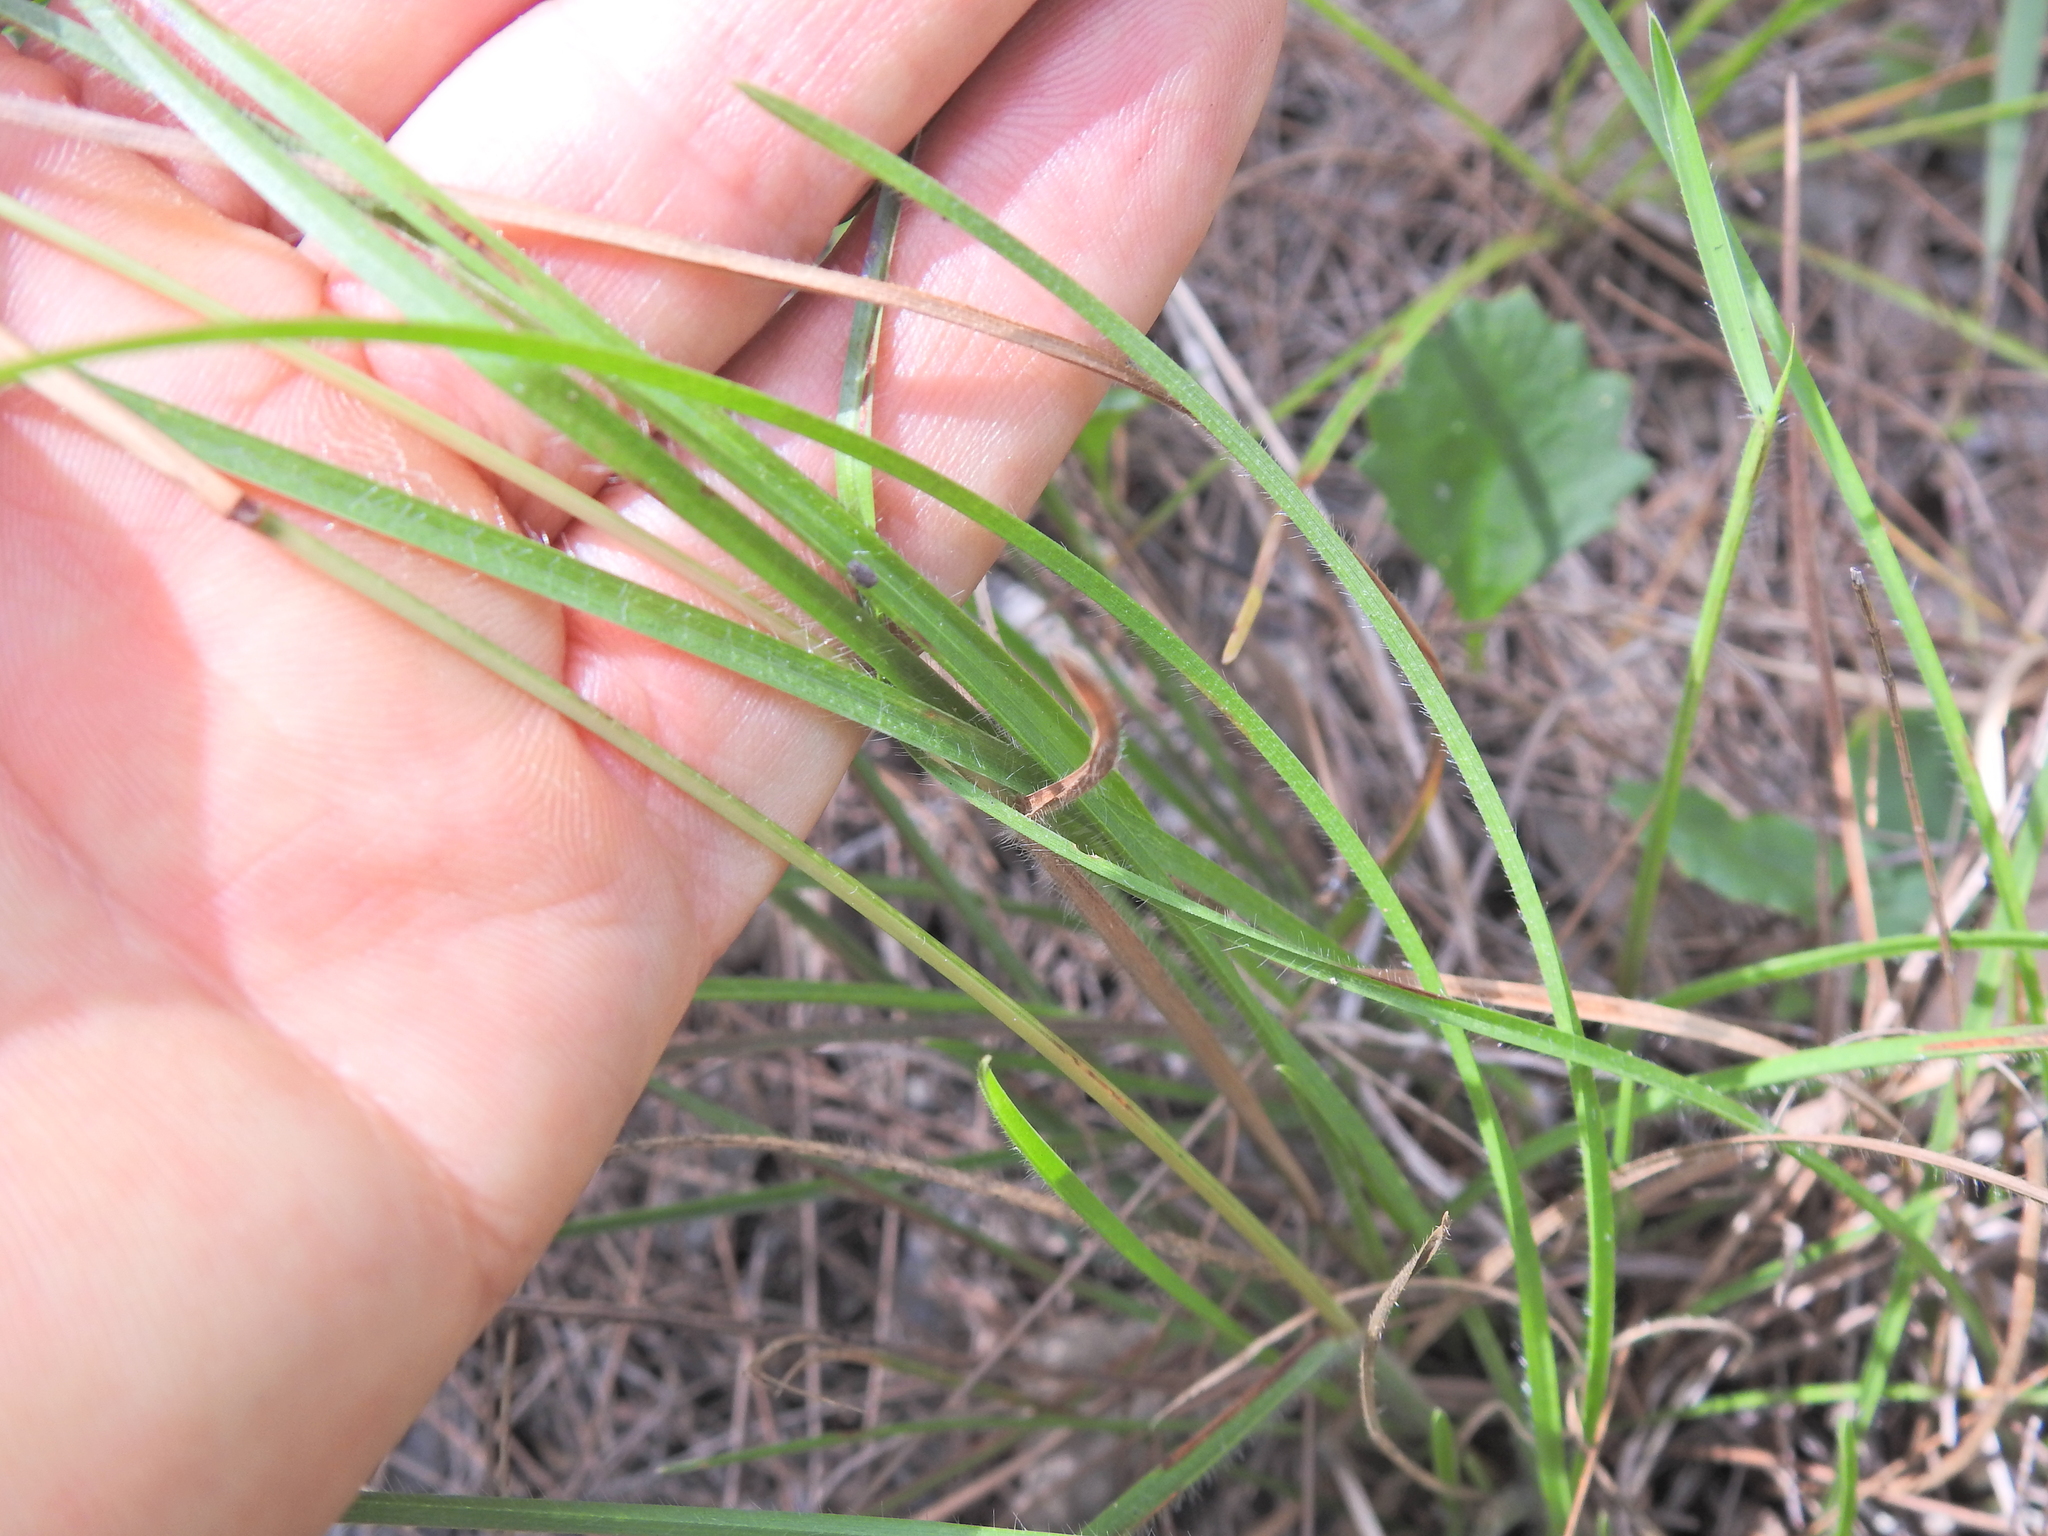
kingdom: Plantae
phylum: Tracheophyta
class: Liliopsida
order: Poales
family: Poaceae
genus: Eremochloa
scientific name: Eremochloa bimaculata
